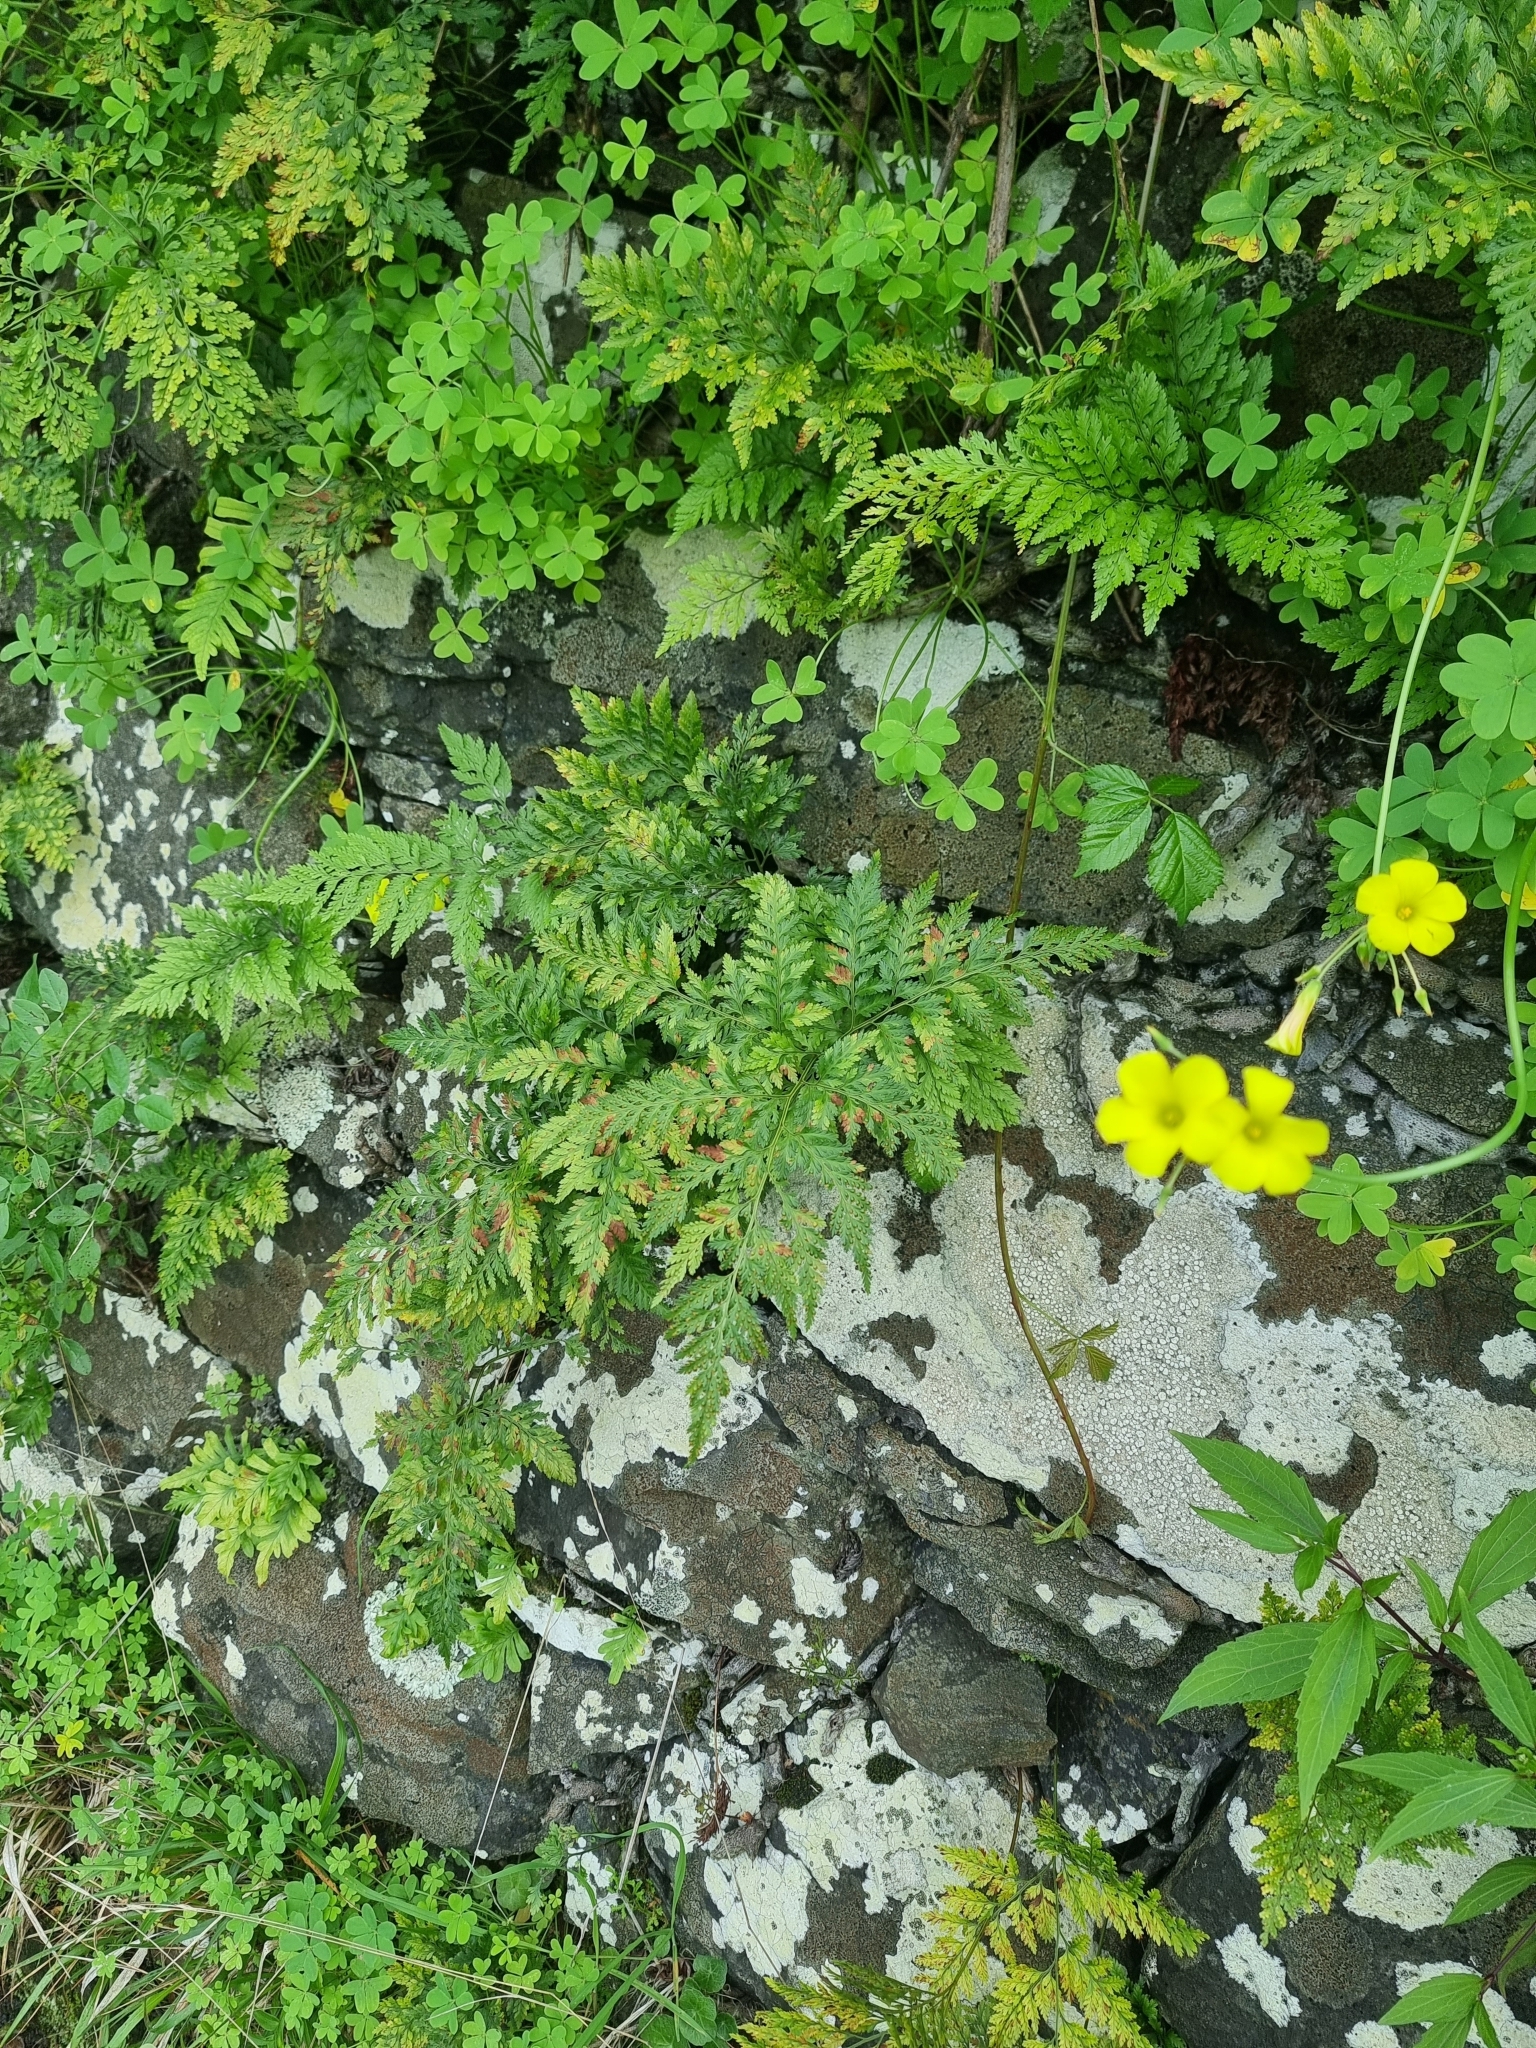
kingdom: Plantae
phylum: Tracheophyta
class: Polypodiopsida
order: Polypodiales
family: Davalliaceae
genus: Davallia
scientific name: Davallia canariensis
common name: Hare's-foot fern
